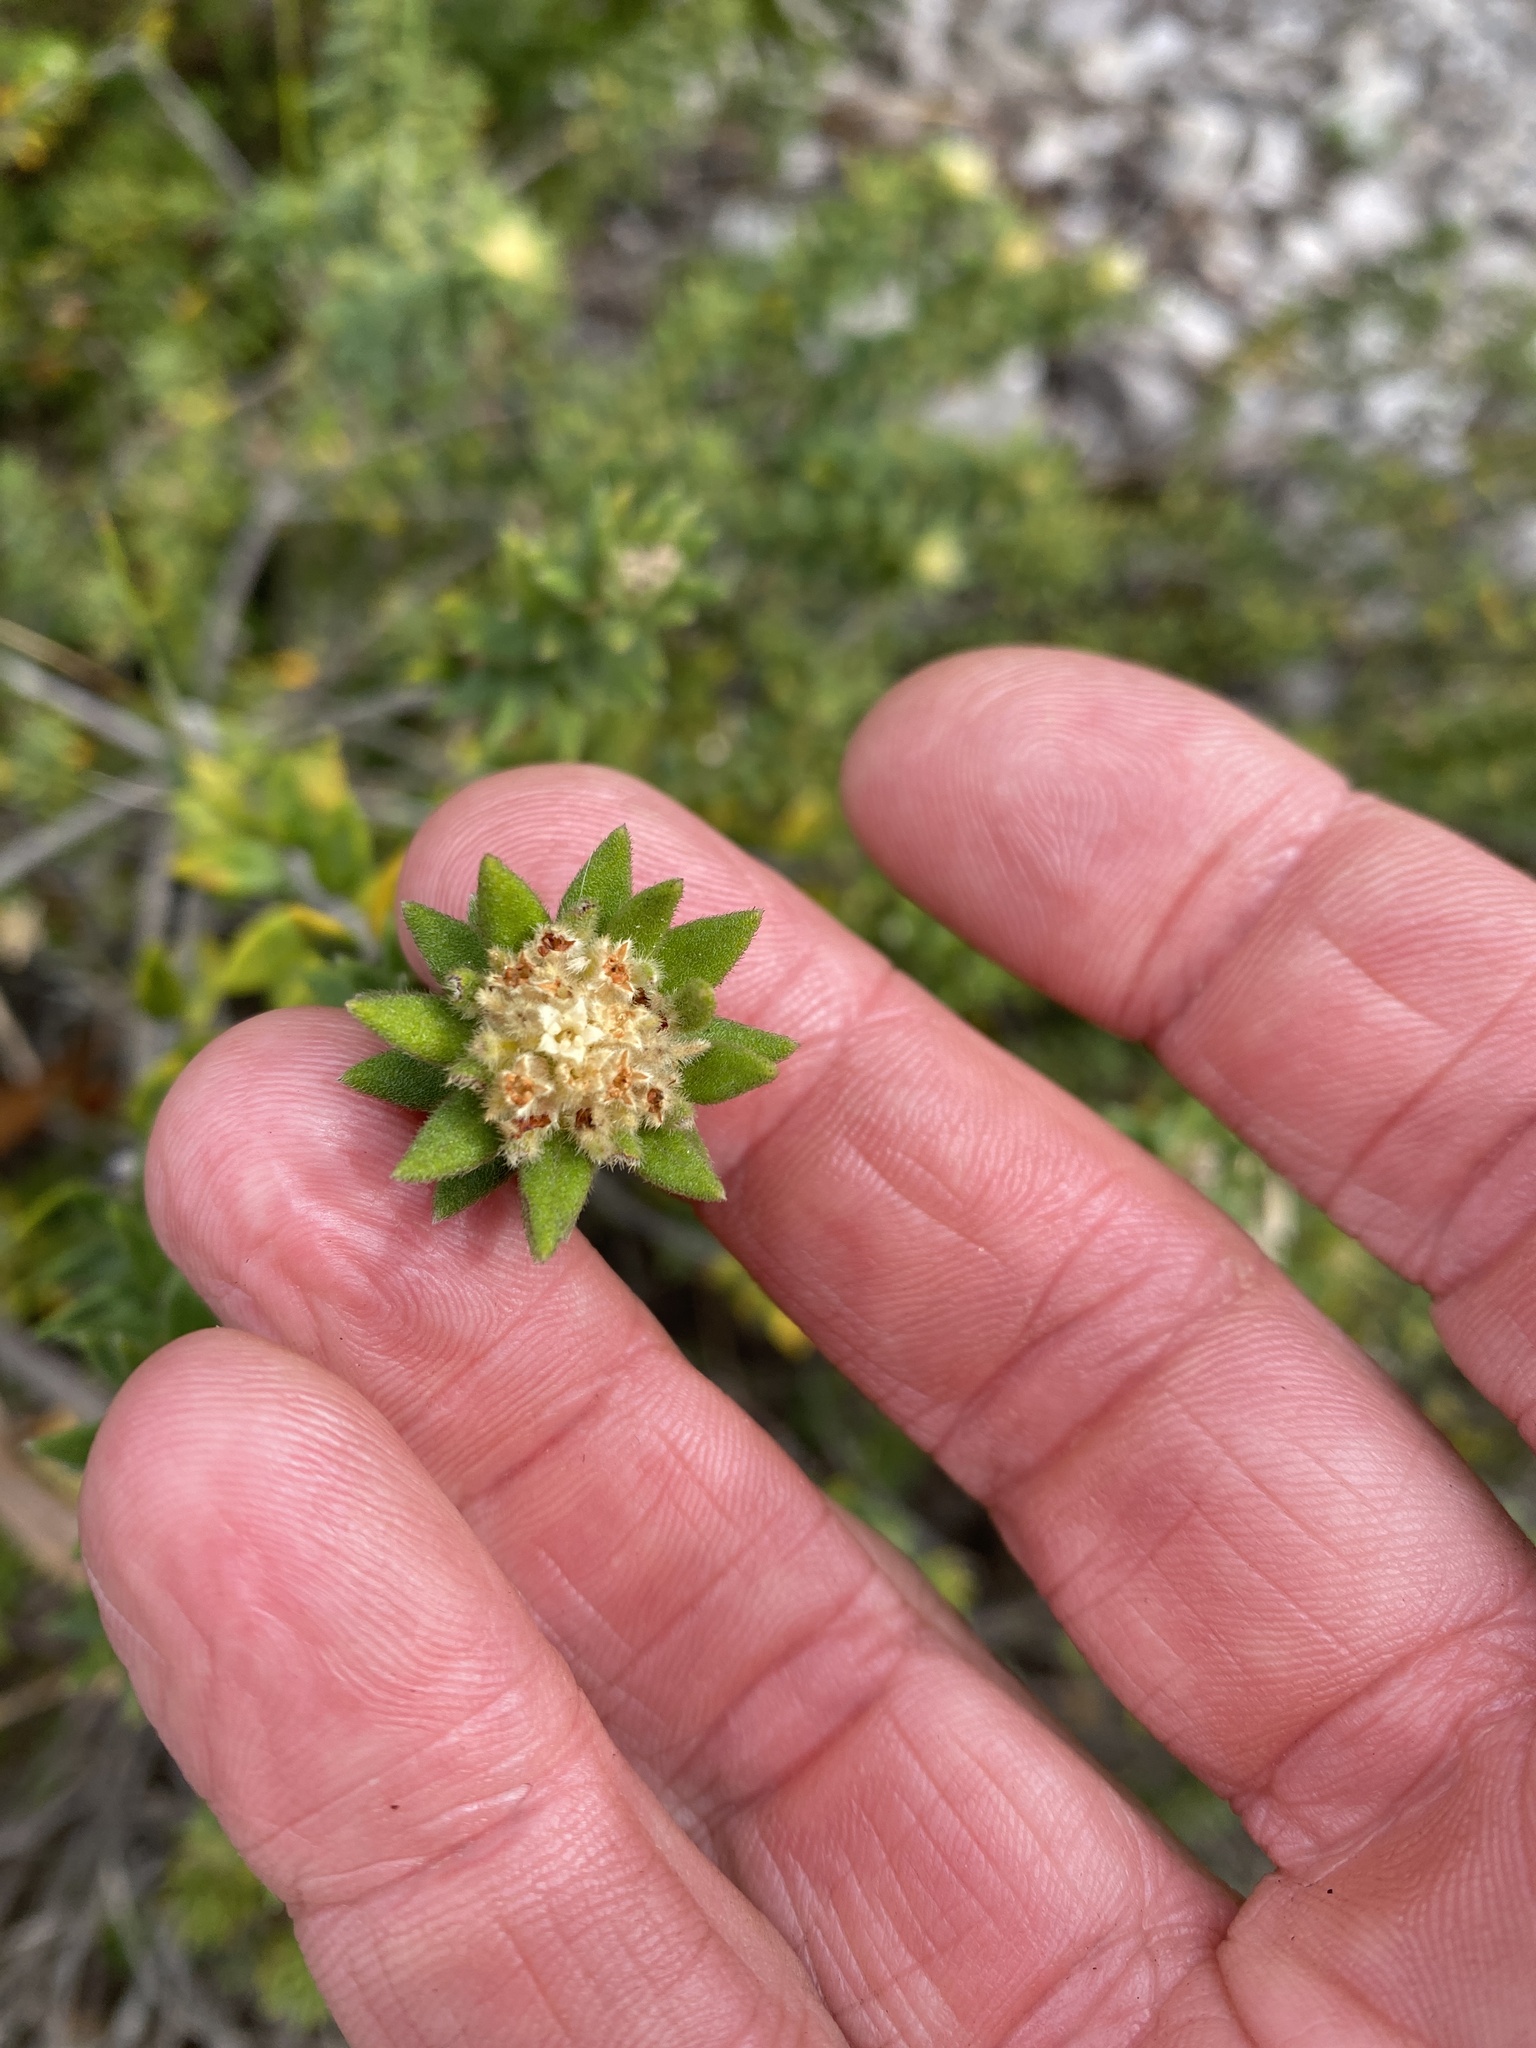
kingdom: Plantae
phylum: Tracheophyta
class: Magnoliopsida
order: Rosales
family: Rhamnaceae
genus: Phylica
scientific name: Phylica dioica
